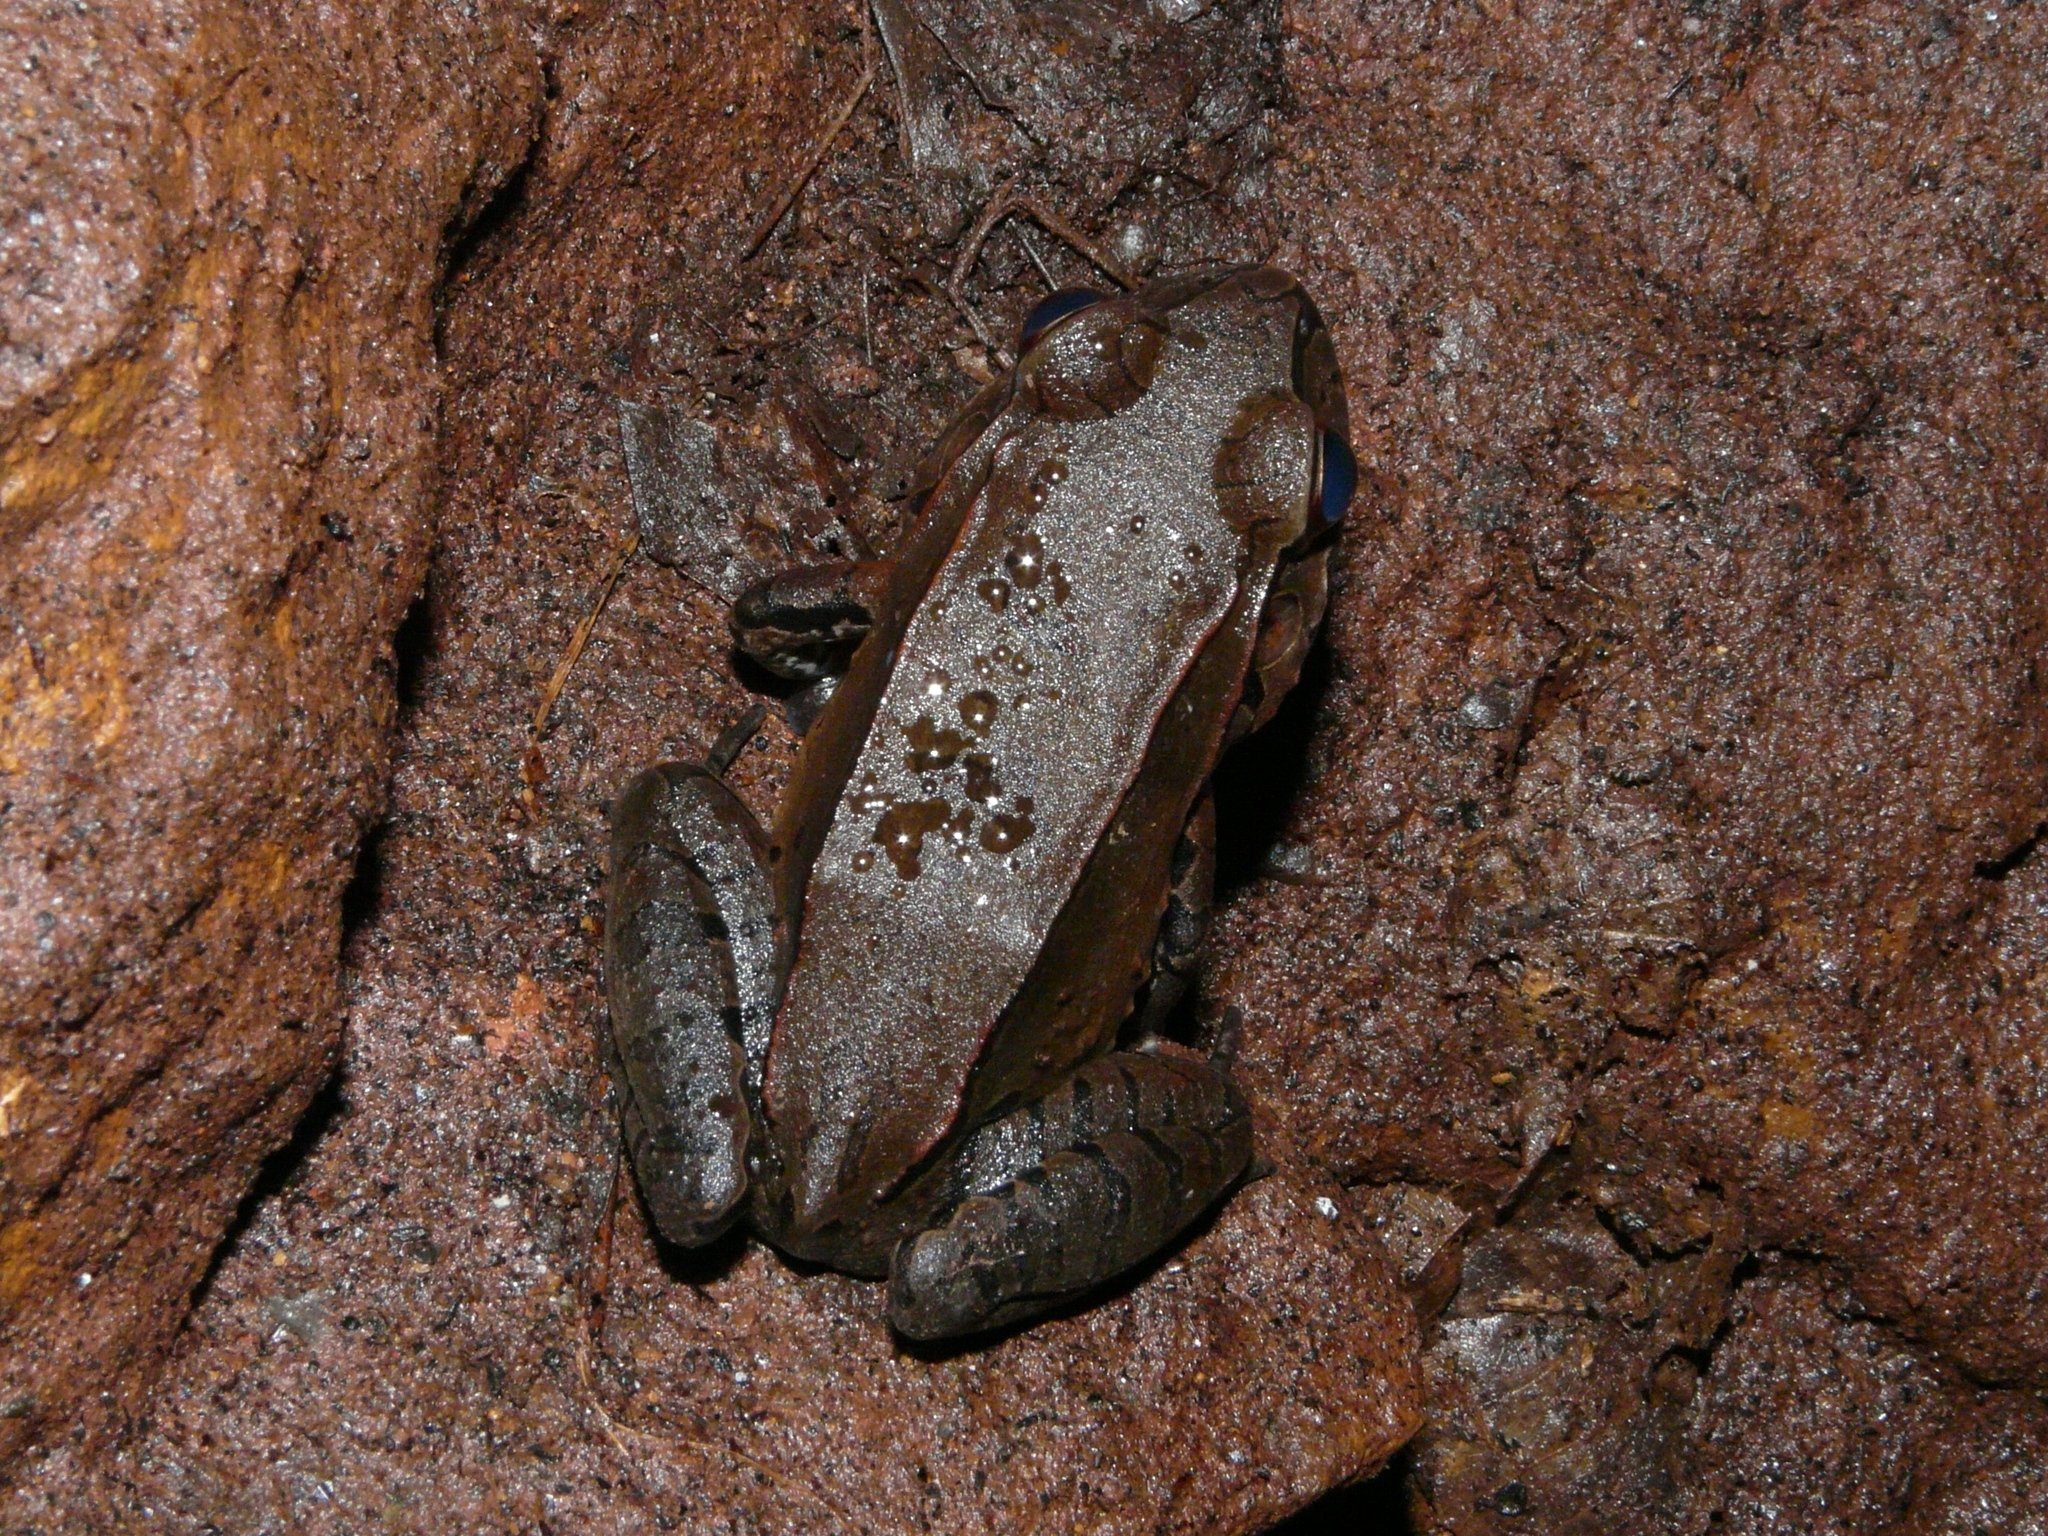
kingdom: Animalia
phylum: Chordata
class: Amphibia
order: Anura
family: Leptodactylidae
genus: Leptodactylus
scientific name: Leptodactylus pentadactylus
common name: Smoky jungle frog
